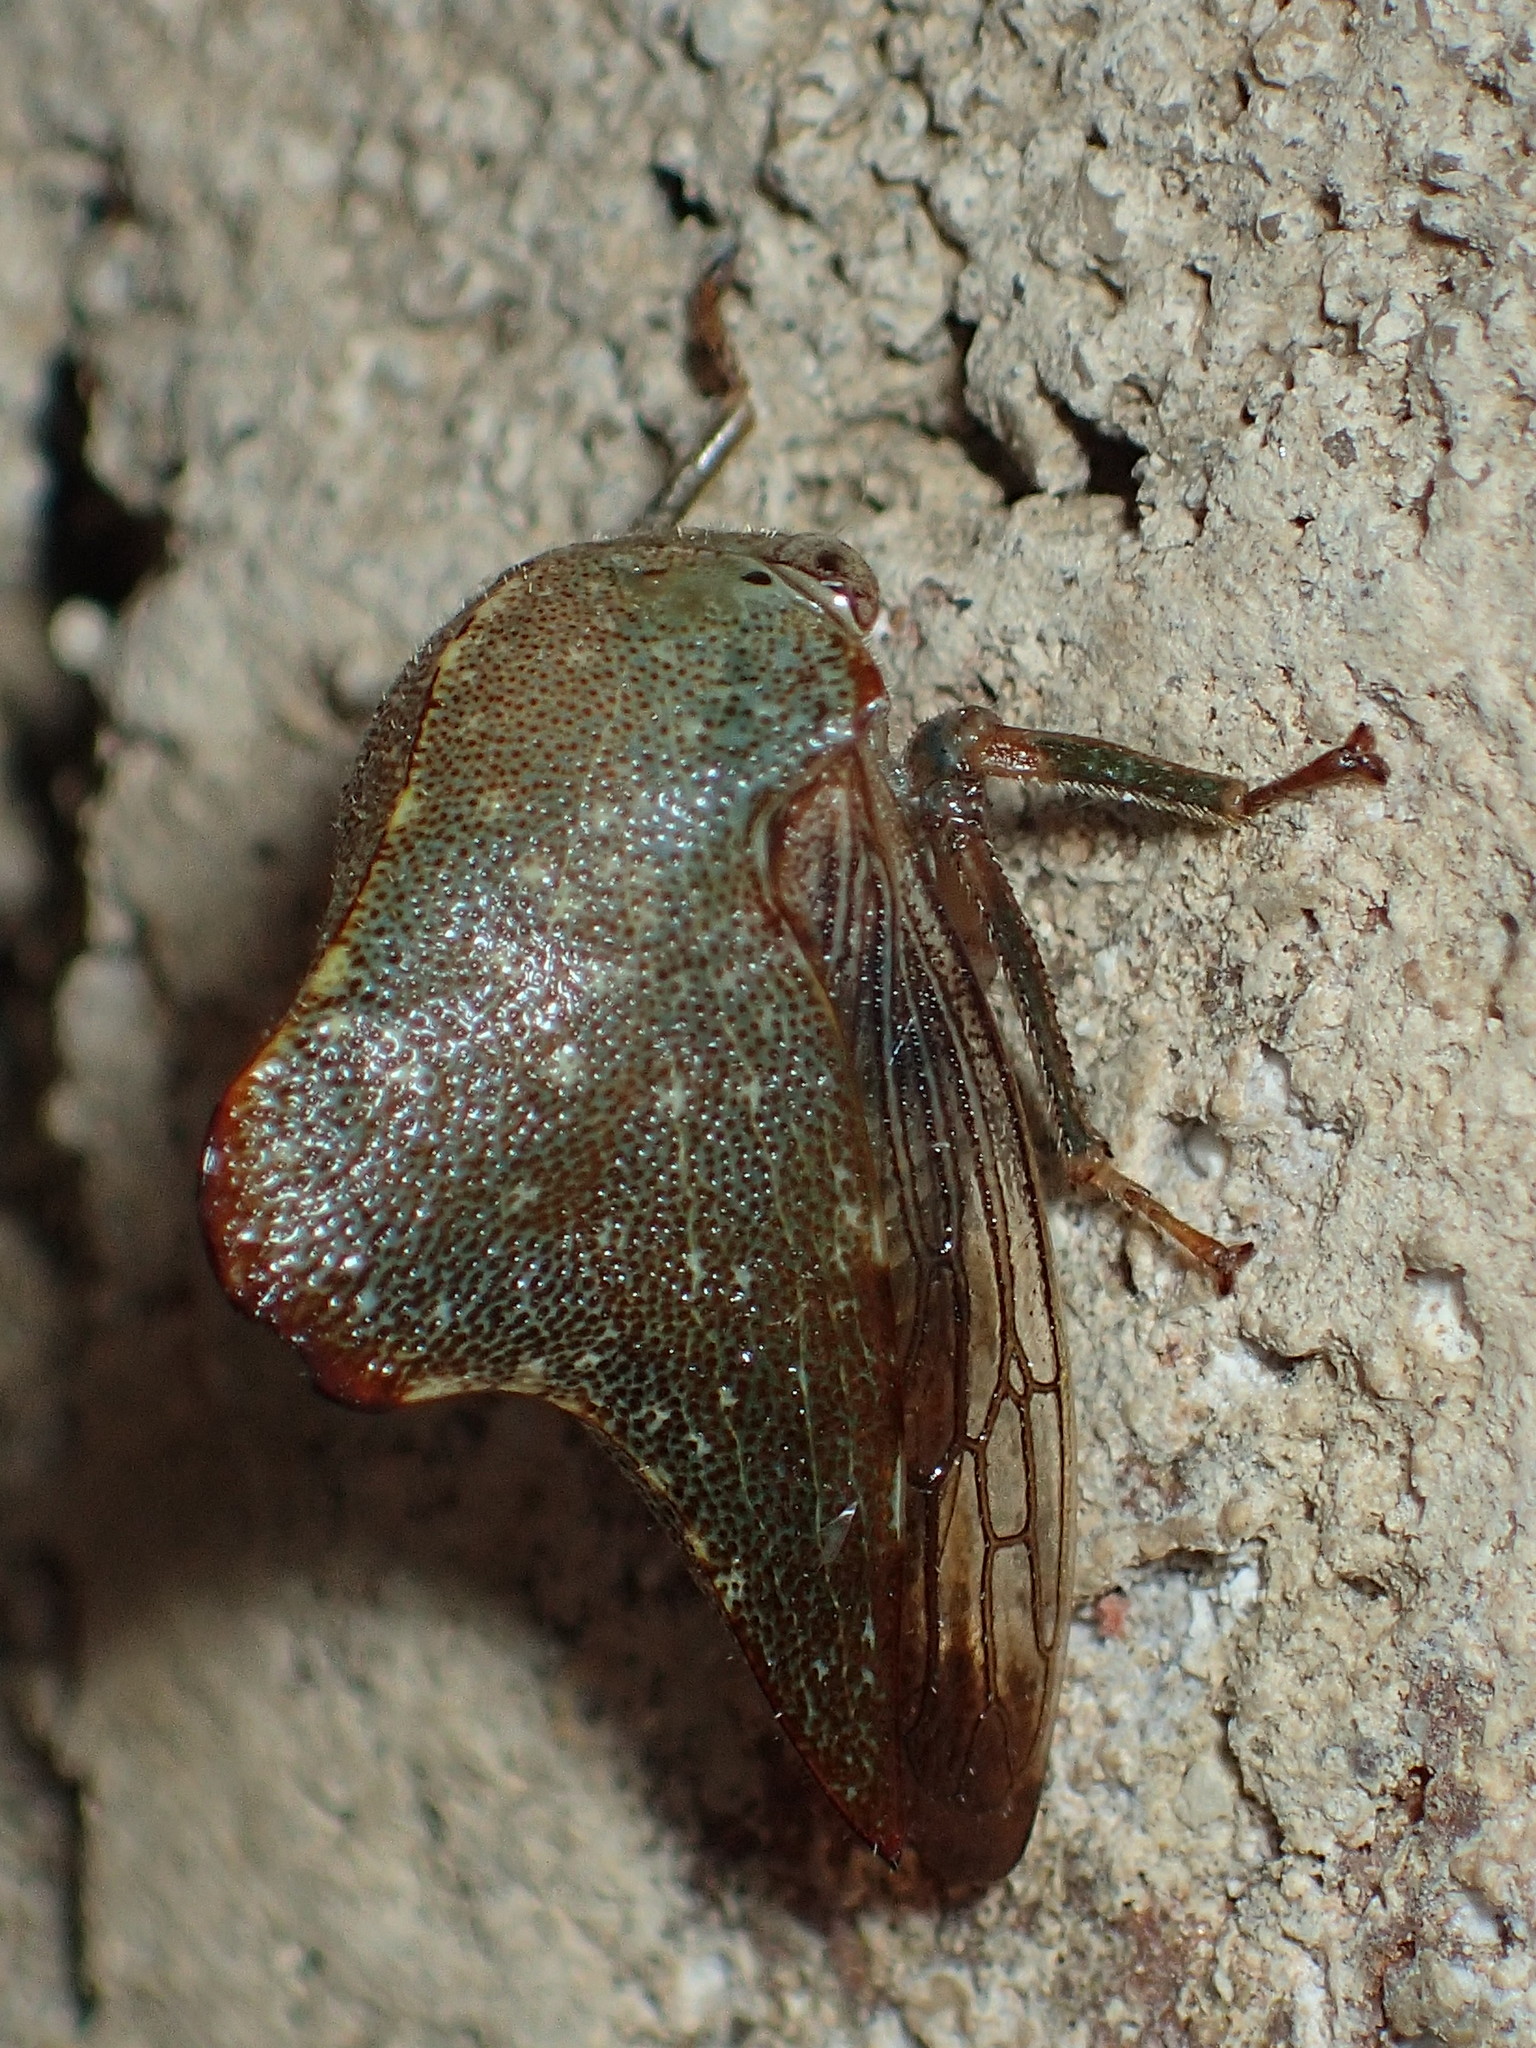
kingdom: Animalia
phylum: Arthropoda
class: Insecta
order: Hemiptera
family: Membracidae
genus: Telamona
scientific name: Telamona monticola
